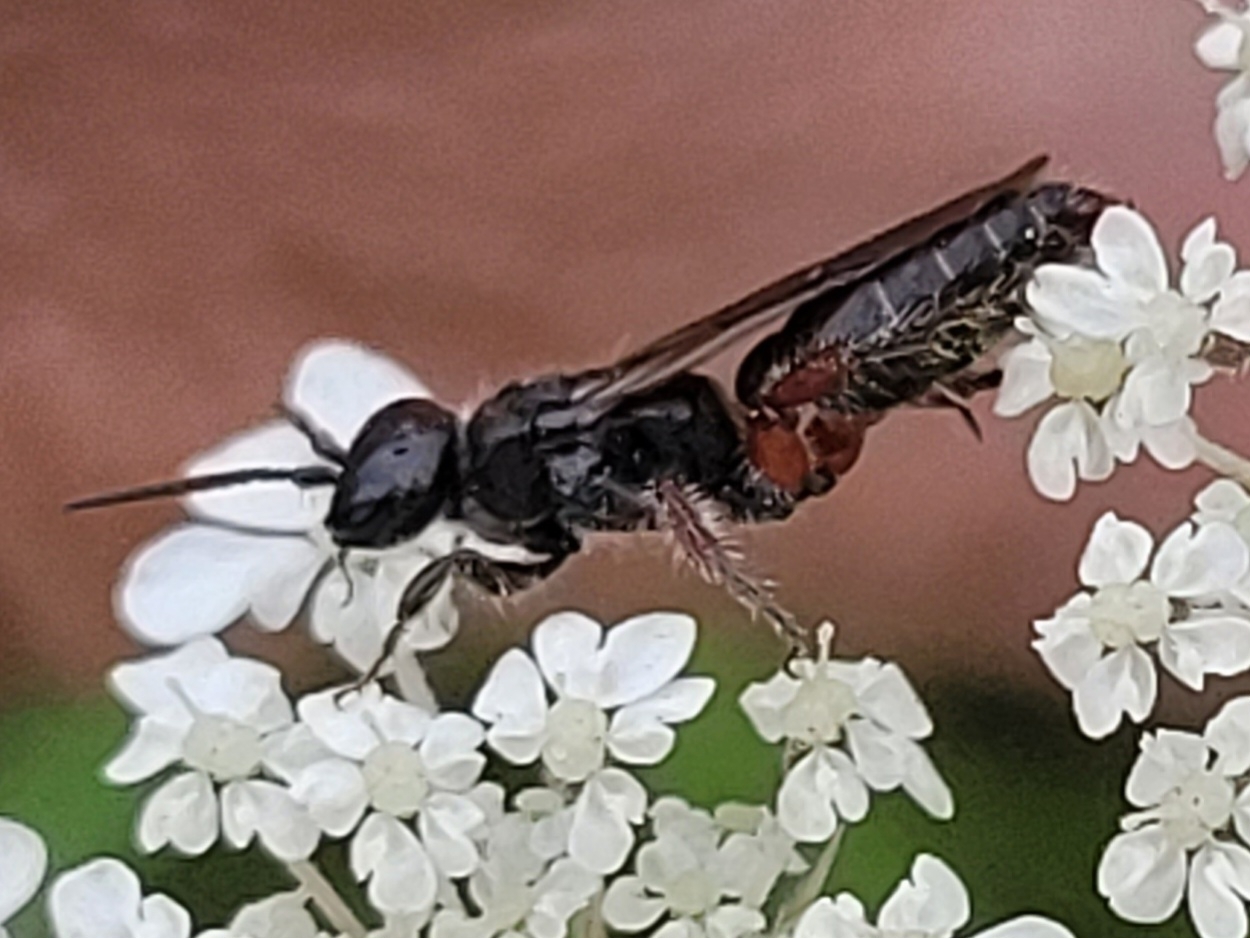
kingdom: Animalia
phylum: Arthropoda
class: Insecta
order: Hymenoptera
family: Tiphiidae
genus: Tiphia
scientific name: Tiphia femorata
